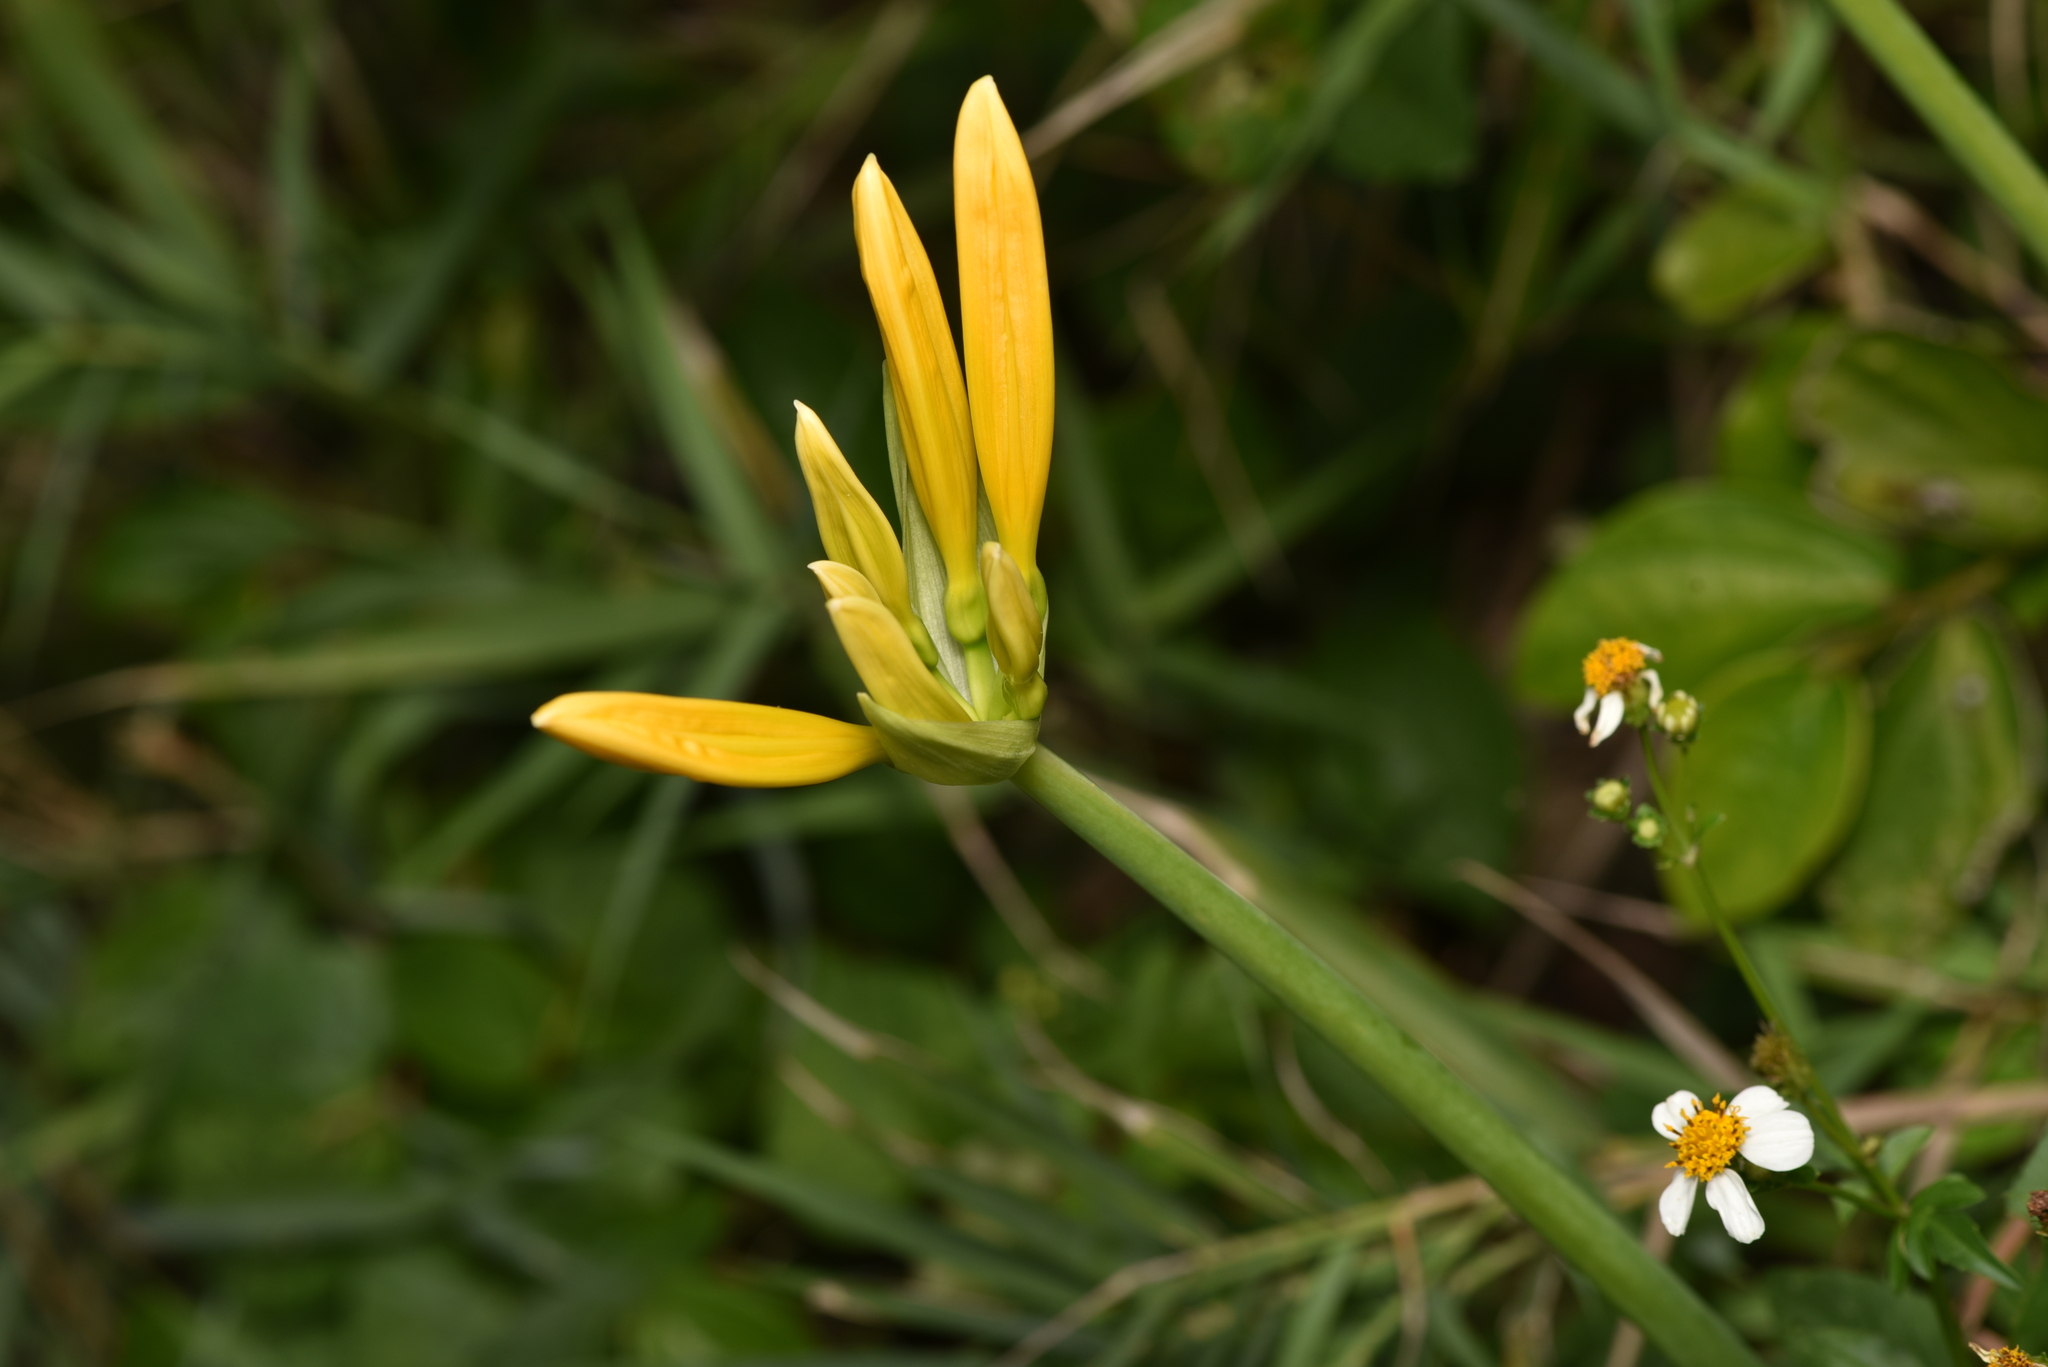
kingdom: Plantae
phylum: Tracheophyta
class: Liliopsida
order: Asparagales
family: Amaryllidaceae
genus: Lycoris
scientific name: Lycoris aurea
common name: Golden hurricane-lily
